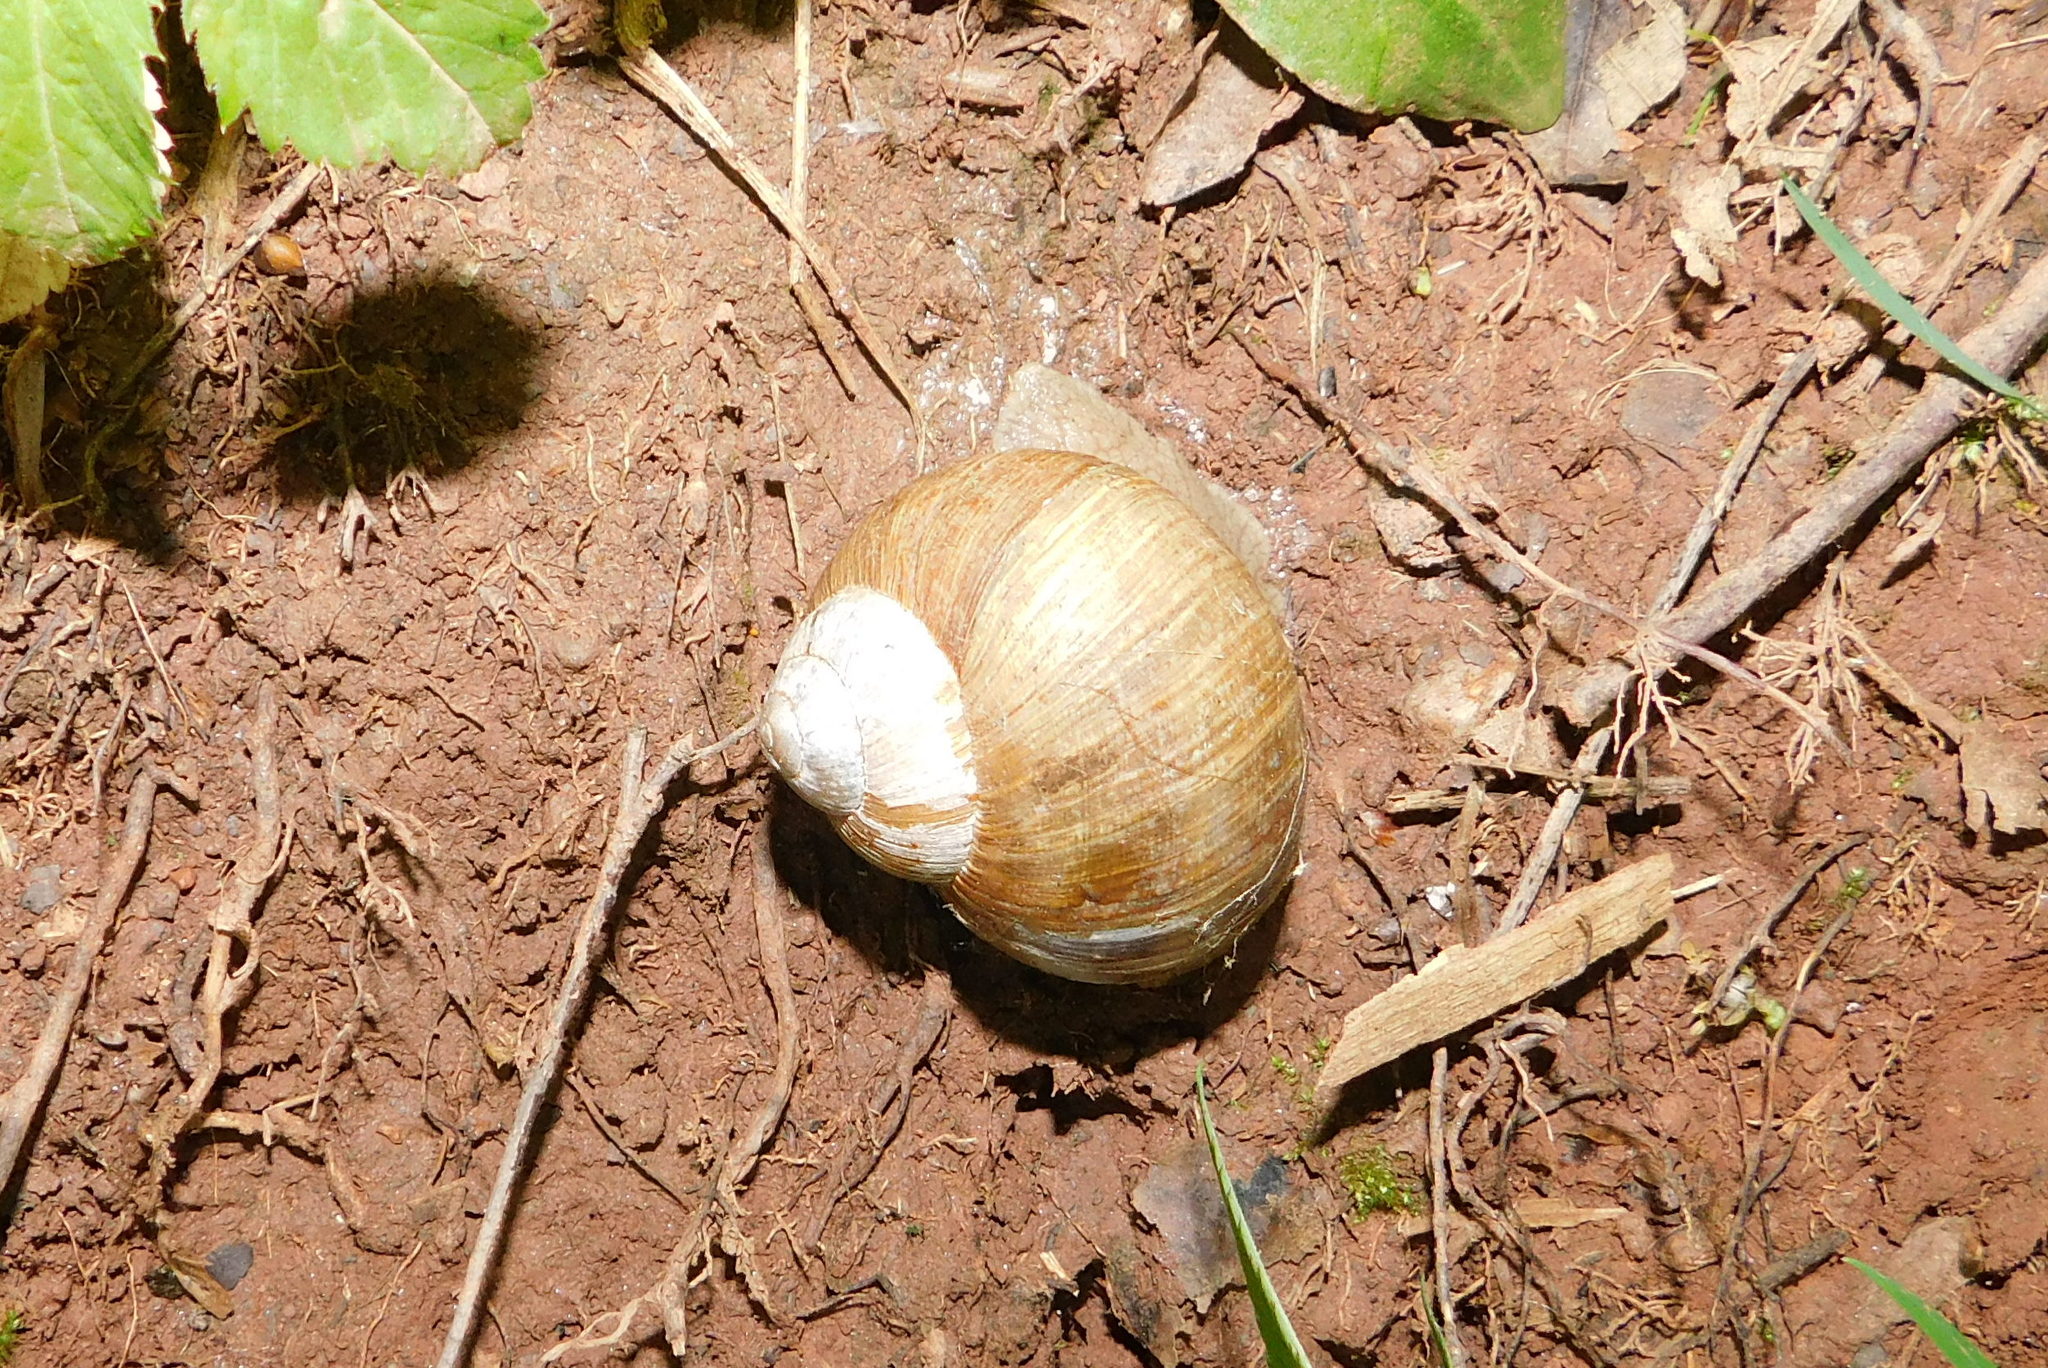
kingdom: Animalia
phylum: Mollusca
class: Gastropoda
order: Stylommatophora
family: Helicidae
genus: Helix
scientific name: Helix pomatia
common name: Roman snail
